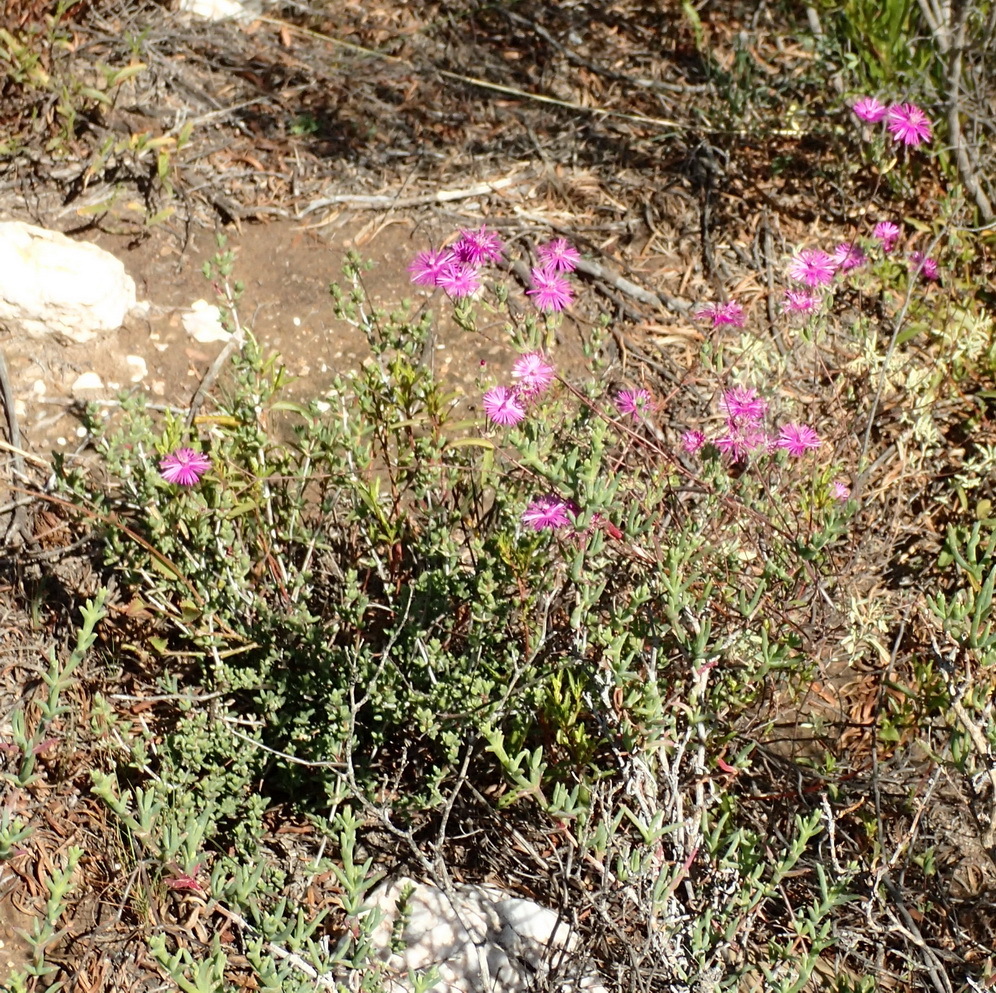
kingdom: Plantae
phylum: Tracheophyta
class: Magnoliopsida
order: Caryophyllales
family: Aizoaceae
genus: Drosanthemum
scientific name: Drosanthemum lique
